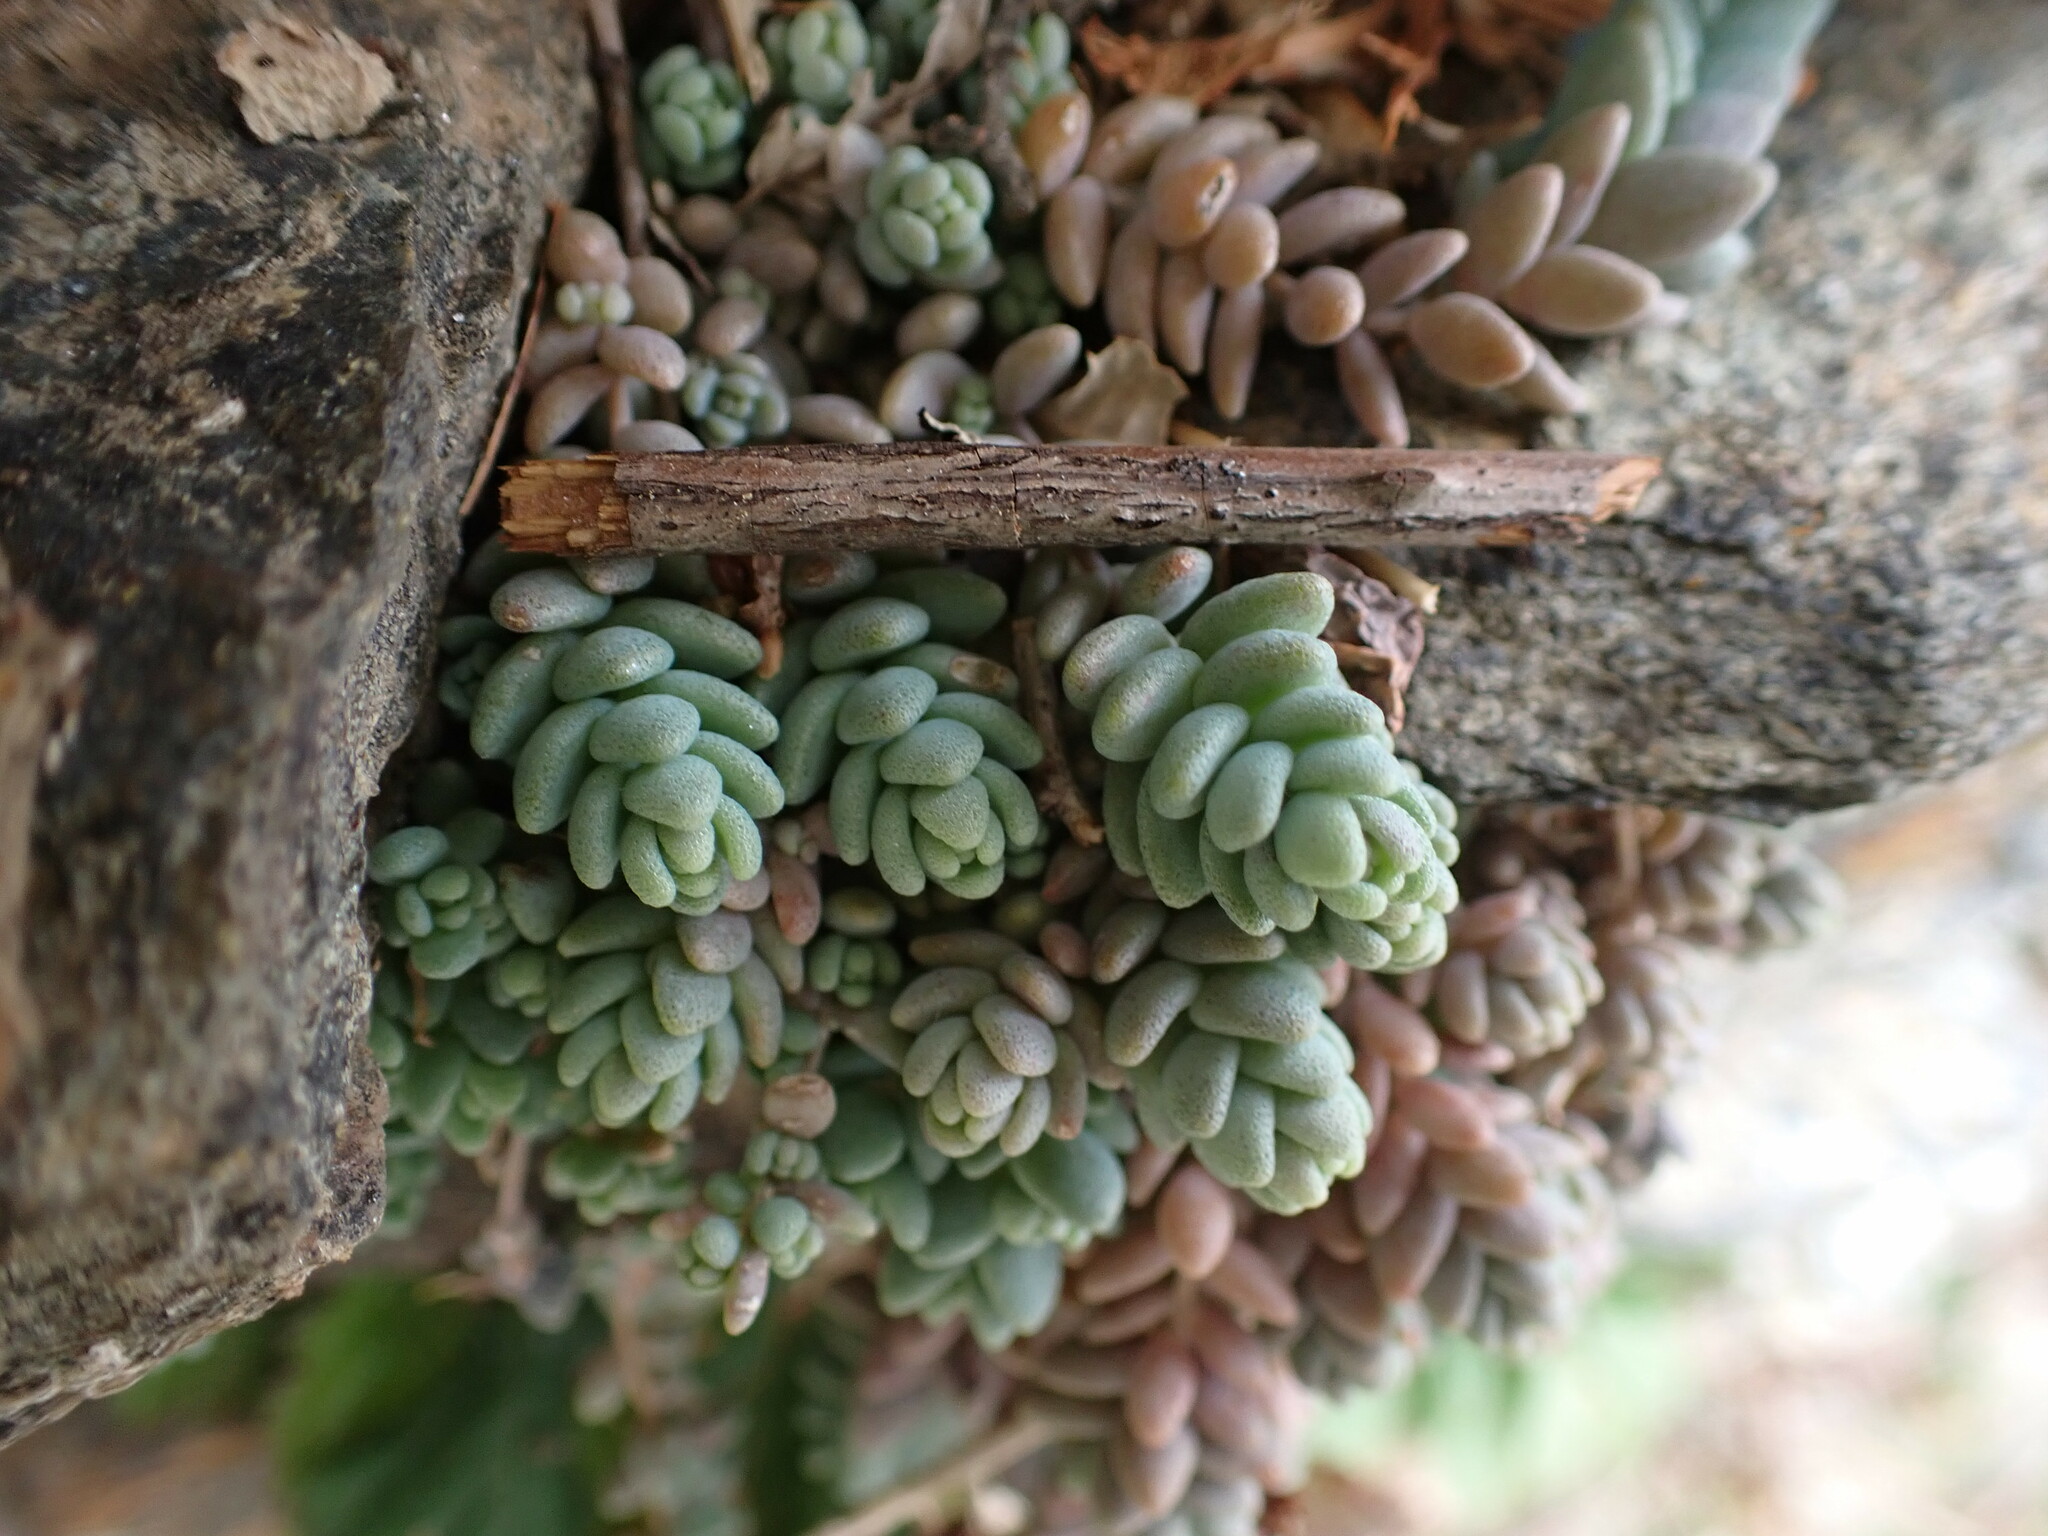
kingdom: Plantae
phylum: Tracheophyta
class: Magnoliopsida
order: Saxifragales
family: Crassulaceae
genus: Sedum
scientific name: Sedum dasyphyllum
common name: Thick-leaf stonecrop
